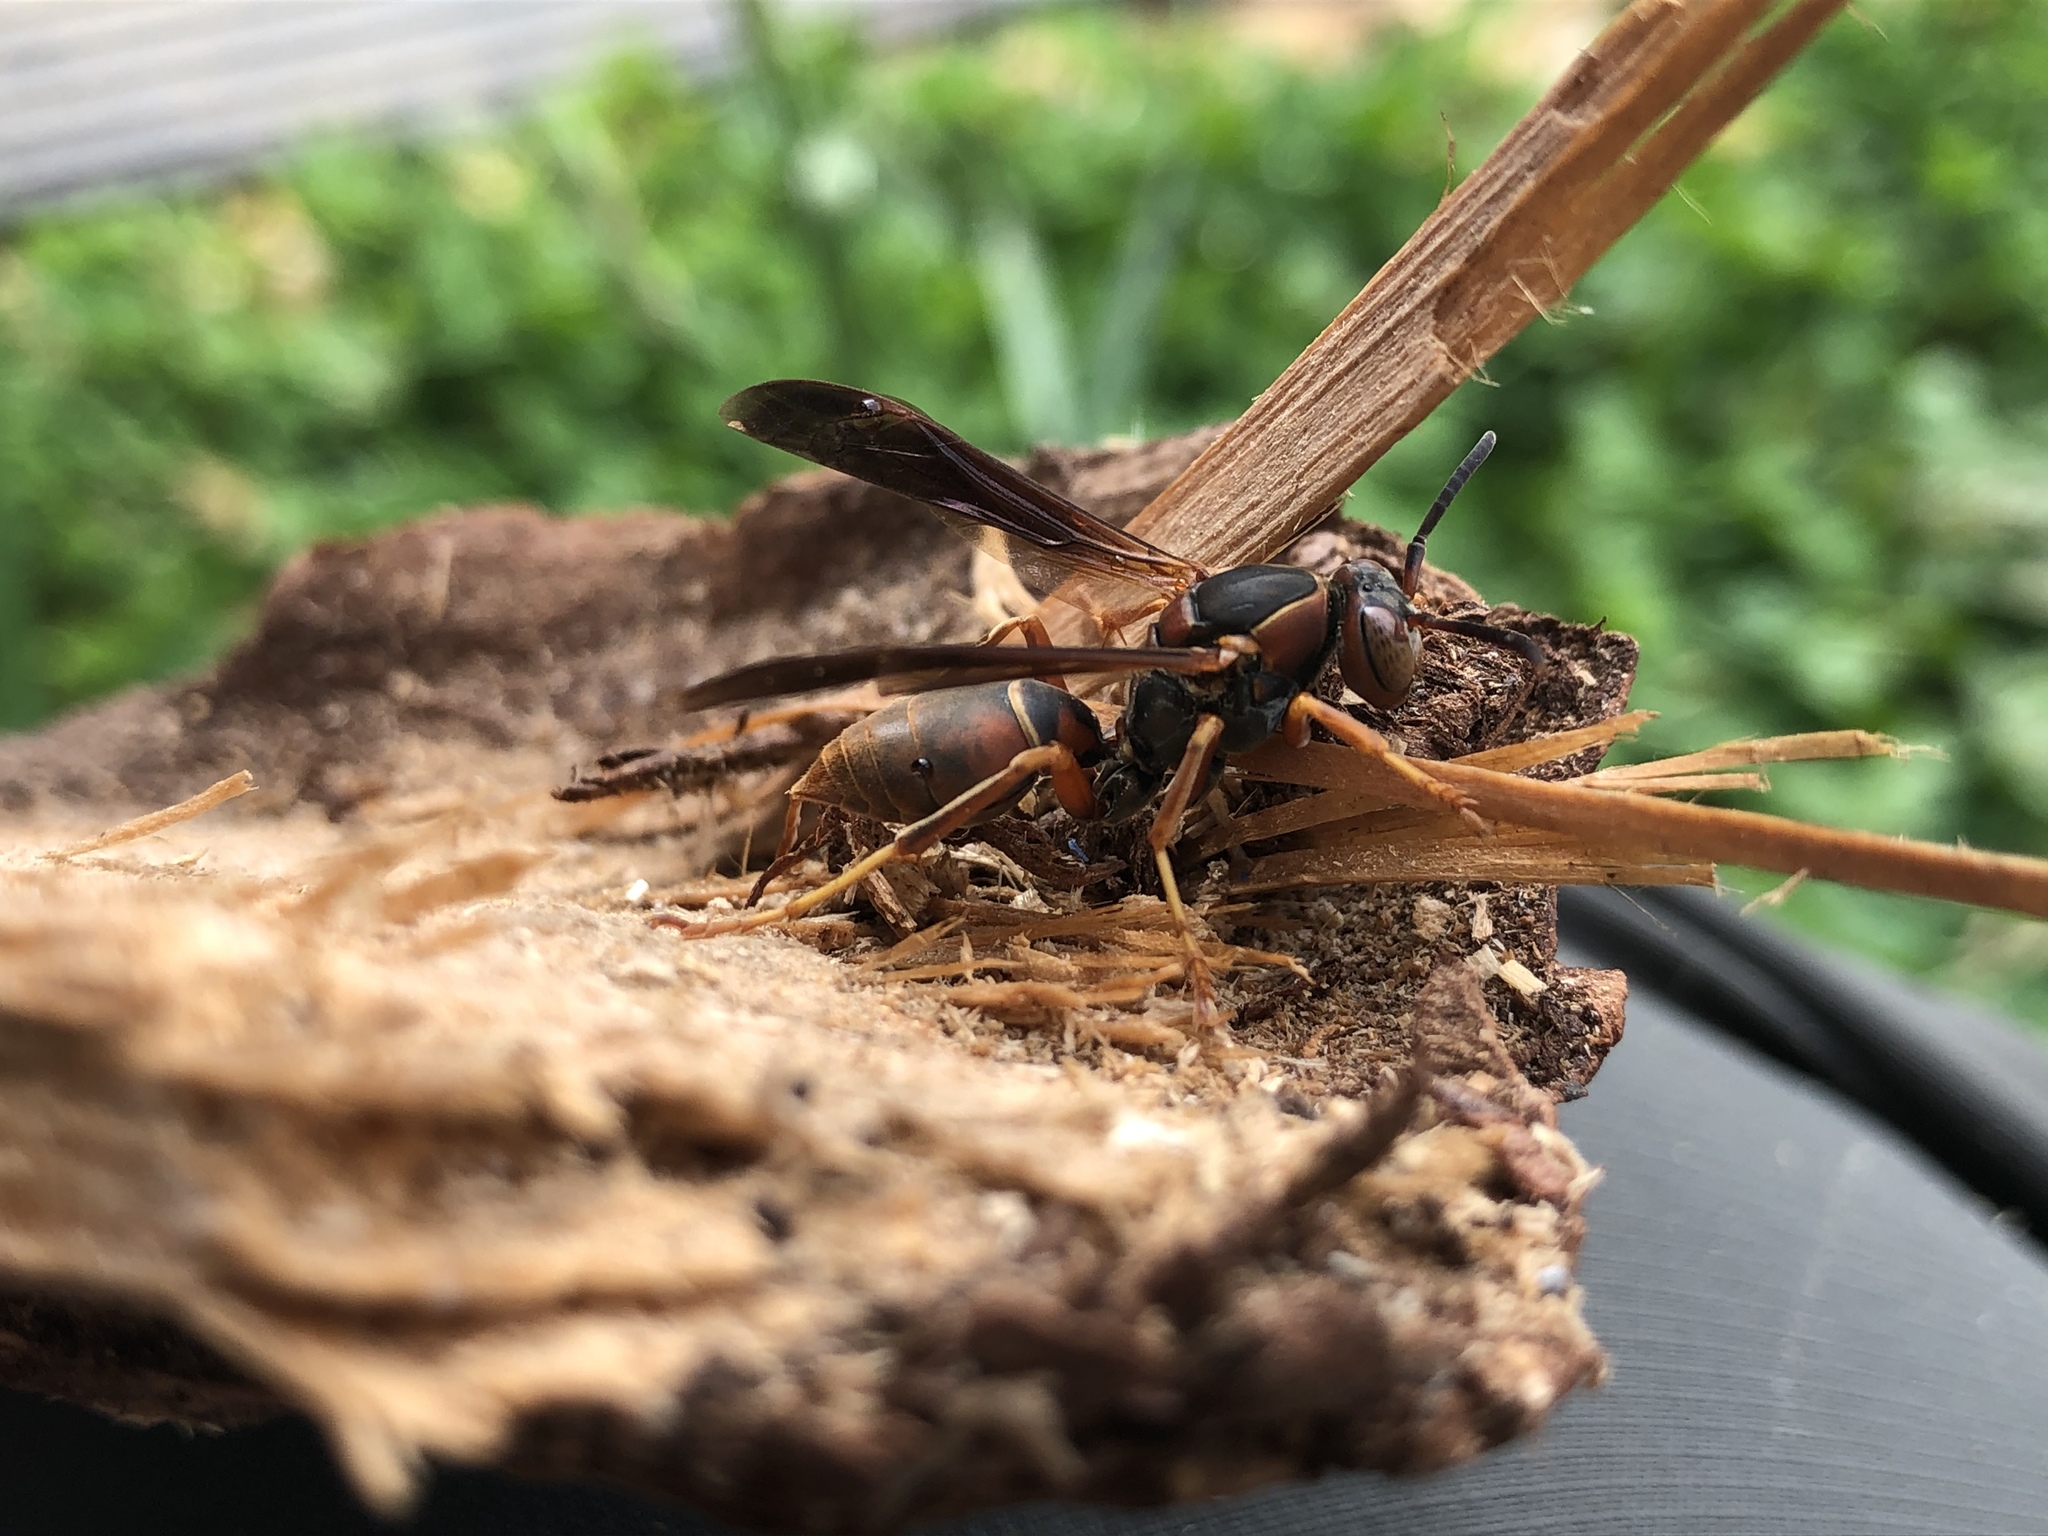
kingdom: Animalia
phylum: Arthropoda
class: Insecta
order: Hymenoptera
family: Eumenidae
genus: Polistes
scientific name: Polistes fuscatus
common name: Dark paper wasp
